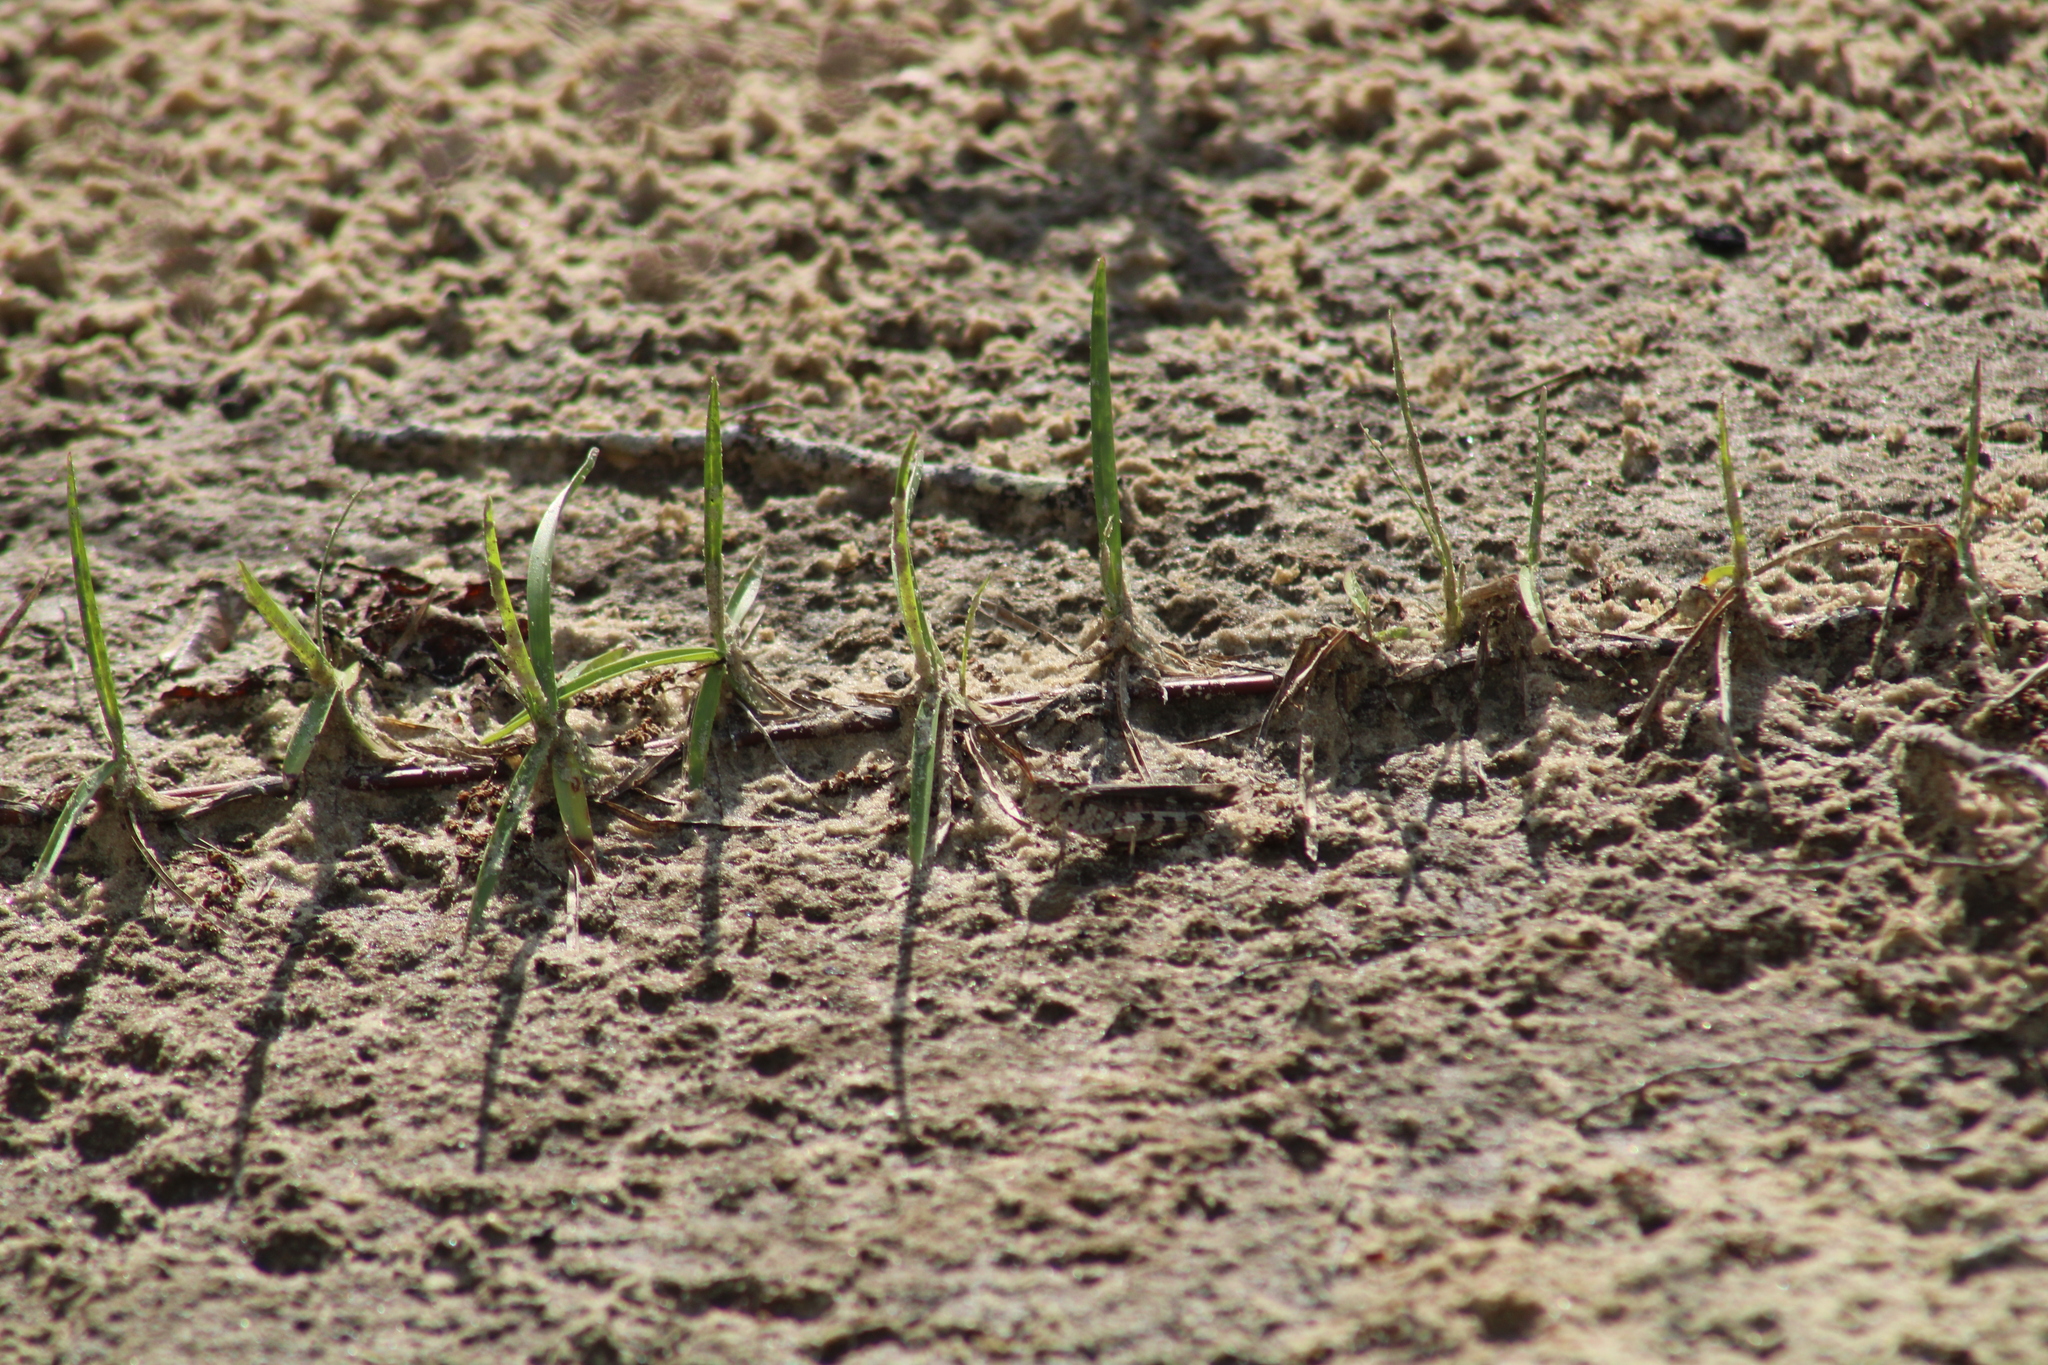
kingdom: Animalia
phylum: Arthropoda
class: Insecta
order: Orthoptera
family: Acrididae
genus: Psinidia
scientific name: Psinidia fenestralis
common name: Long-horned locust
